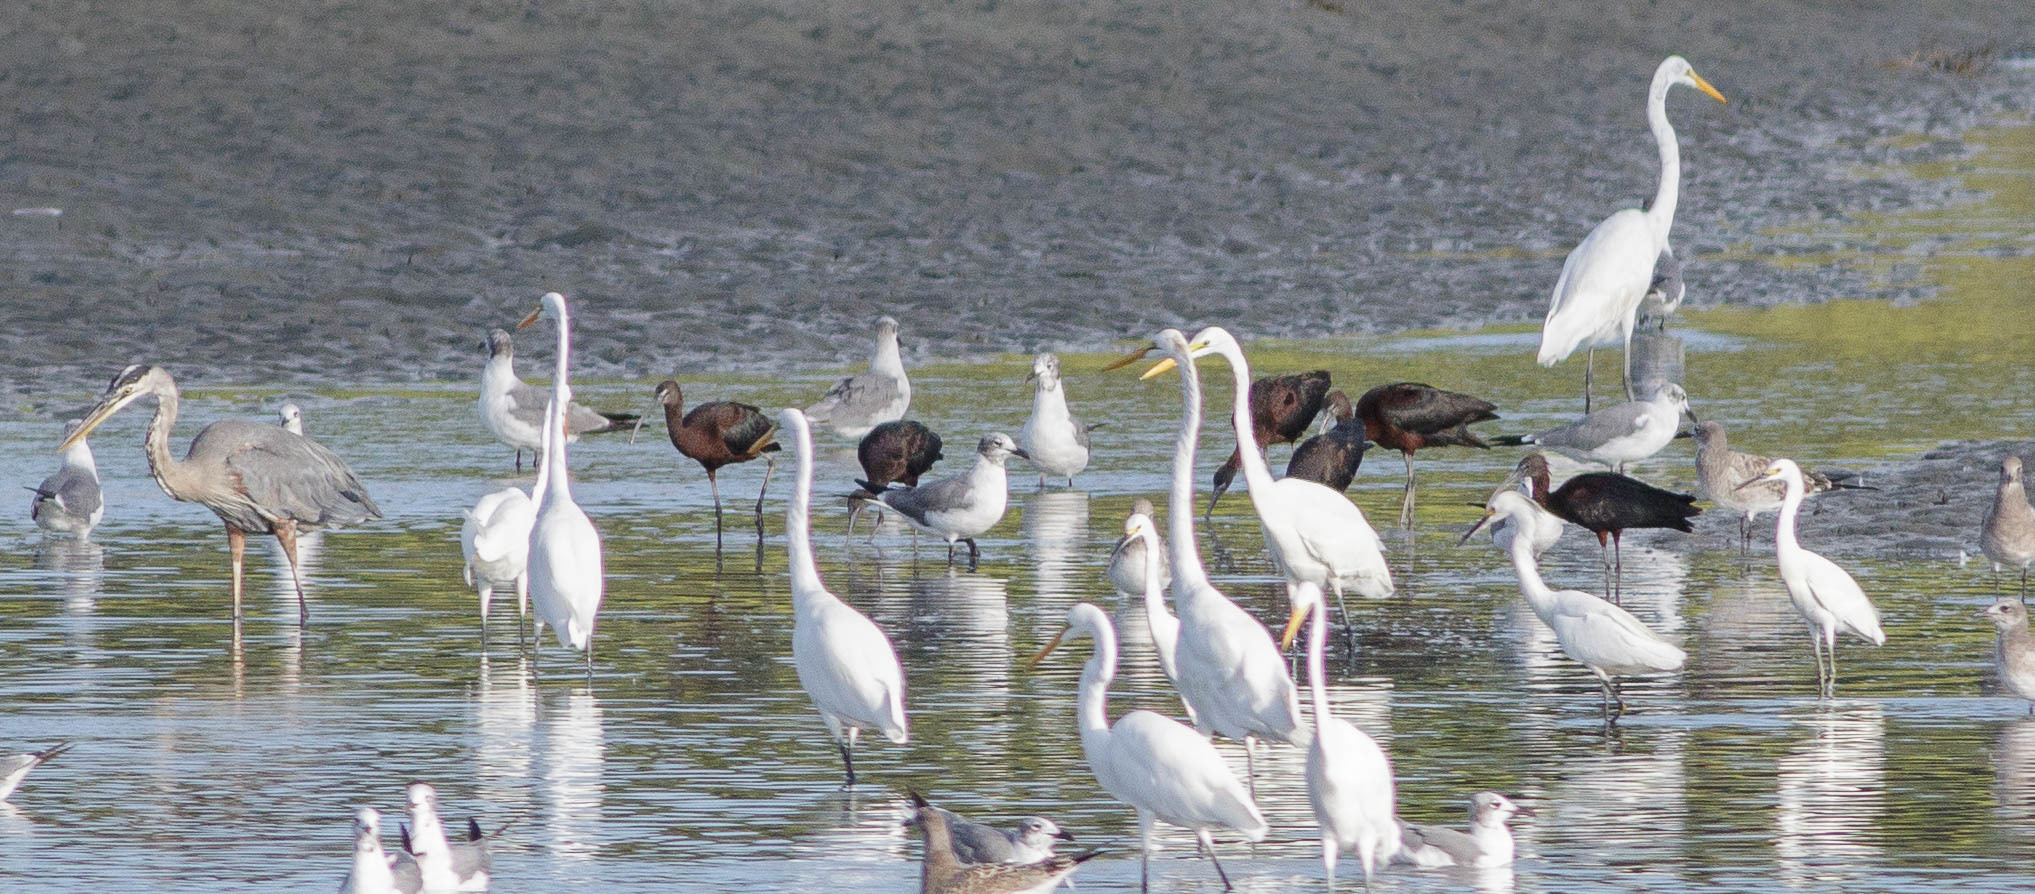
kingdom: Animalia
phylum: Chordata
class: Aves
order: Pelecaniformes
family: Threskiornithidae
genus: Plegadis
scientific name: Plegadis falcinellus
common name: Glossy ibis
